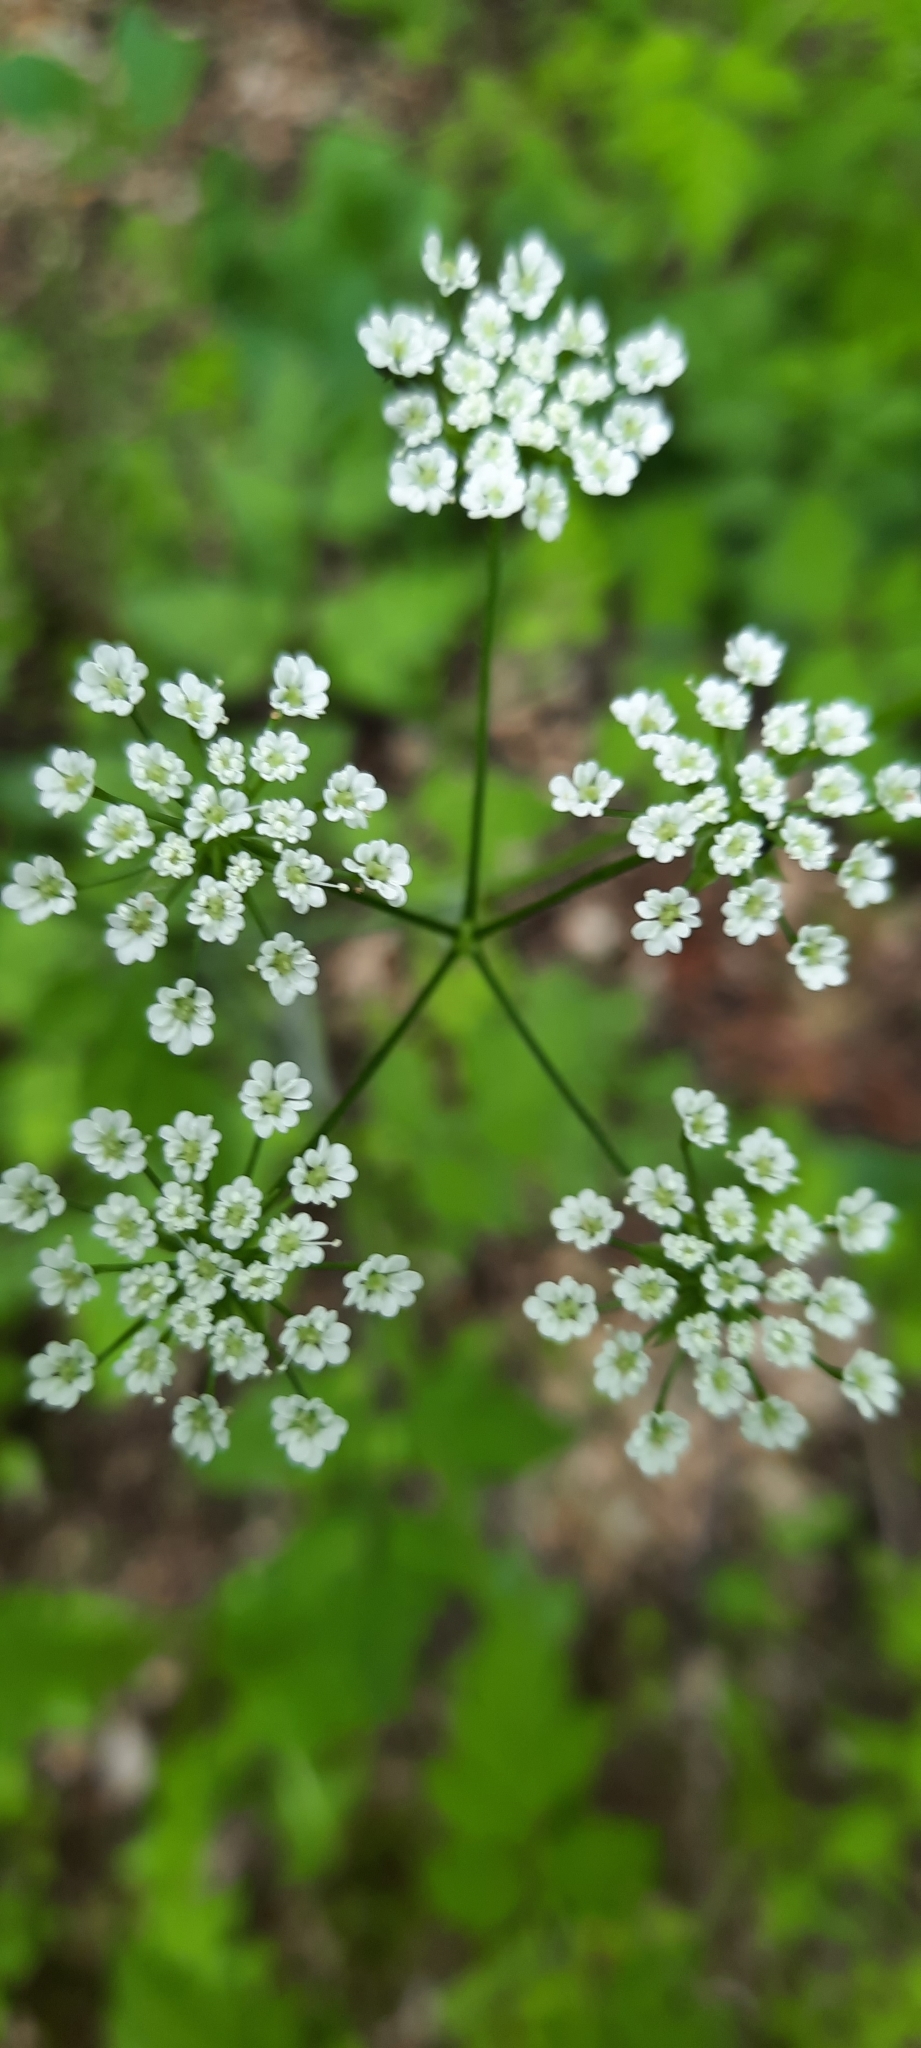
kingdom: Plantae
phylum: Tracheophyta
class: Magnoliopsida
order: Apiales
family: Apiaceae
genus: Chaerophyllum
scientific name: Chaerophyllum temulum
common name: Rough chervil
